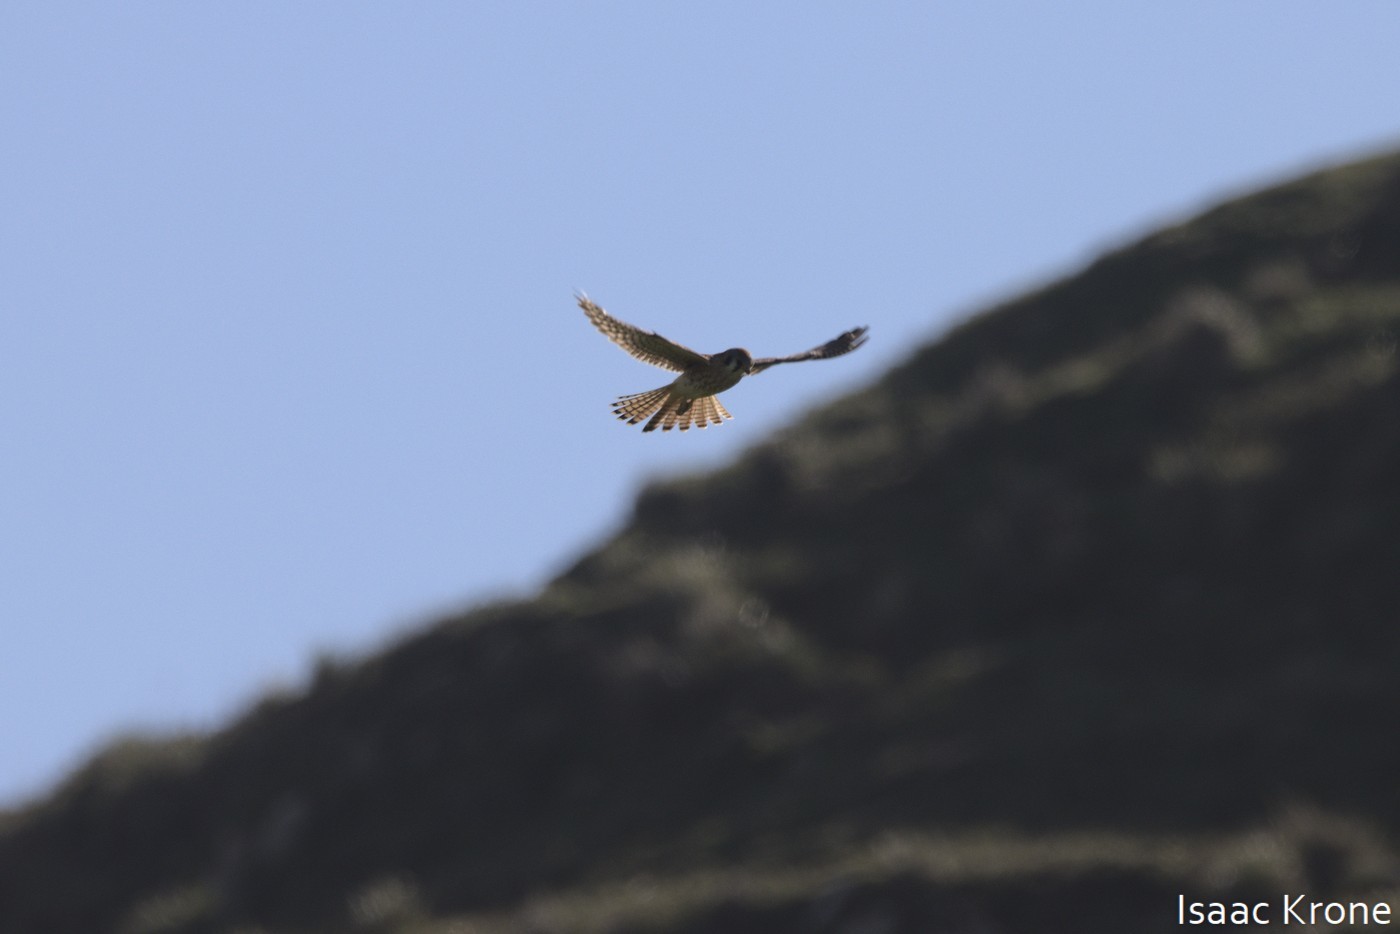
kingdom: Animalia
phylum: Chordata
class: Aves
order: Falconiformes
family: Falconidae
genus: Falco
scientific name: Falco sparverius
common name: American kestrel
